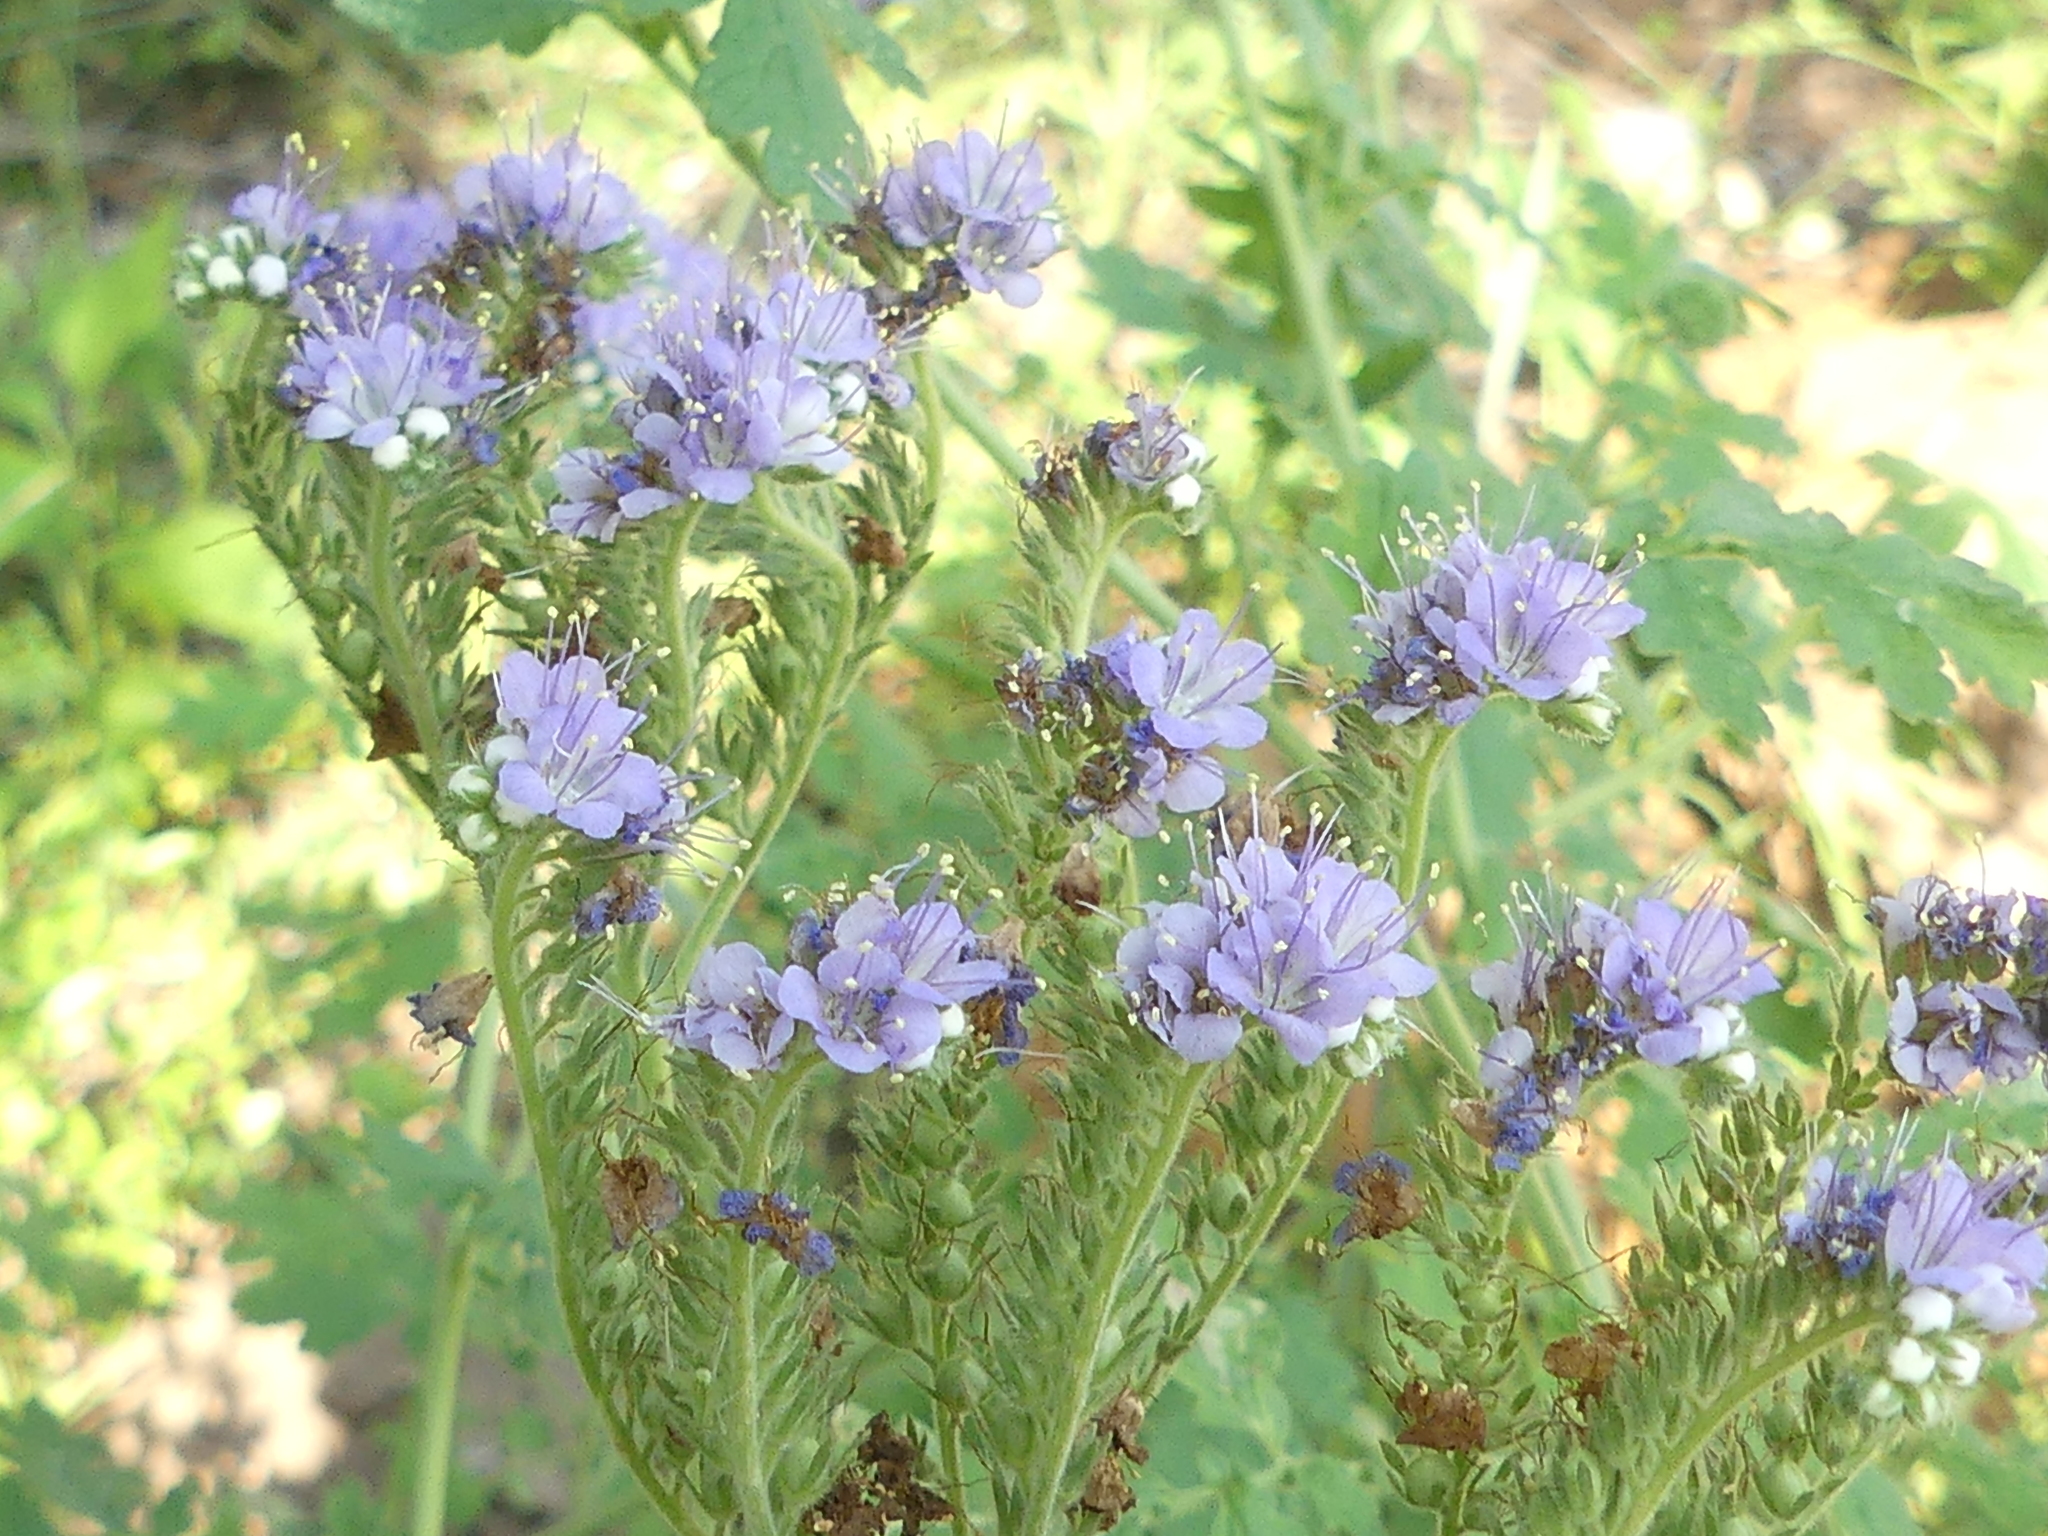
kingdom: Plantae
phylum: Tracheophyta
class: Magnoliopsida
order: Boraginales
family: Hydrophyllaceae
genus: Phacelia
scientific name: Phacelia congesta
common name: Blue curls
